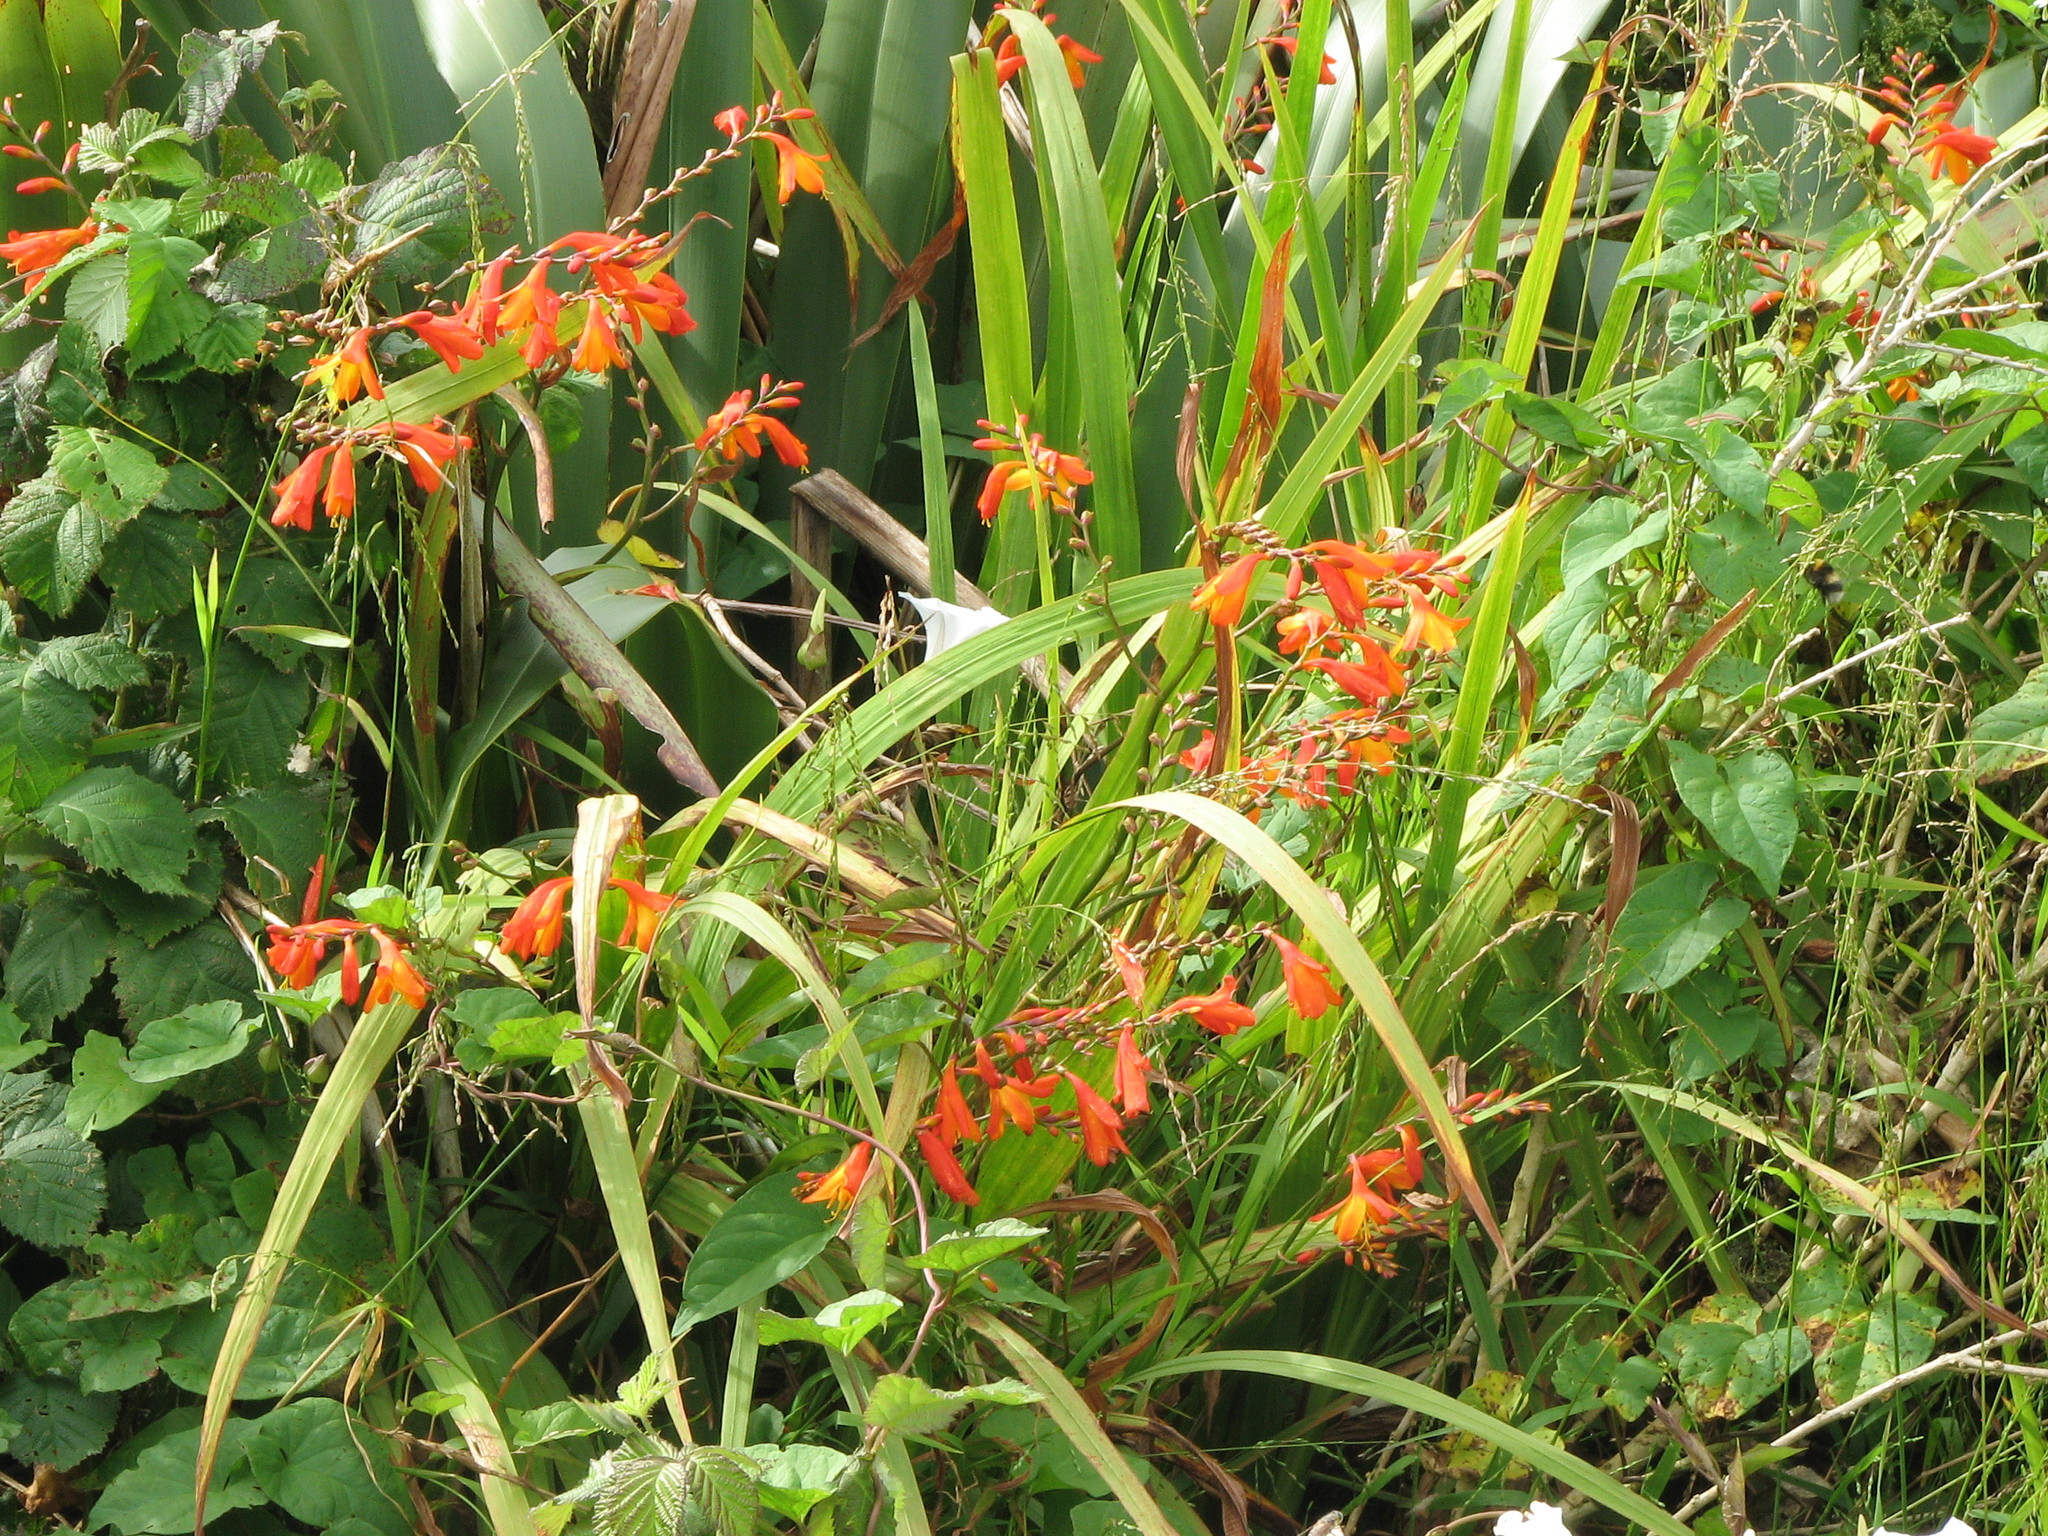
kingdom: Plantae
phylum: Tracheophyta
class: Liliopsida
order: Asparagales
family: Iridaceae
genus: Crocosmia
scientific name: Crocosmia crocosmiiflora
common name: Montbretia
